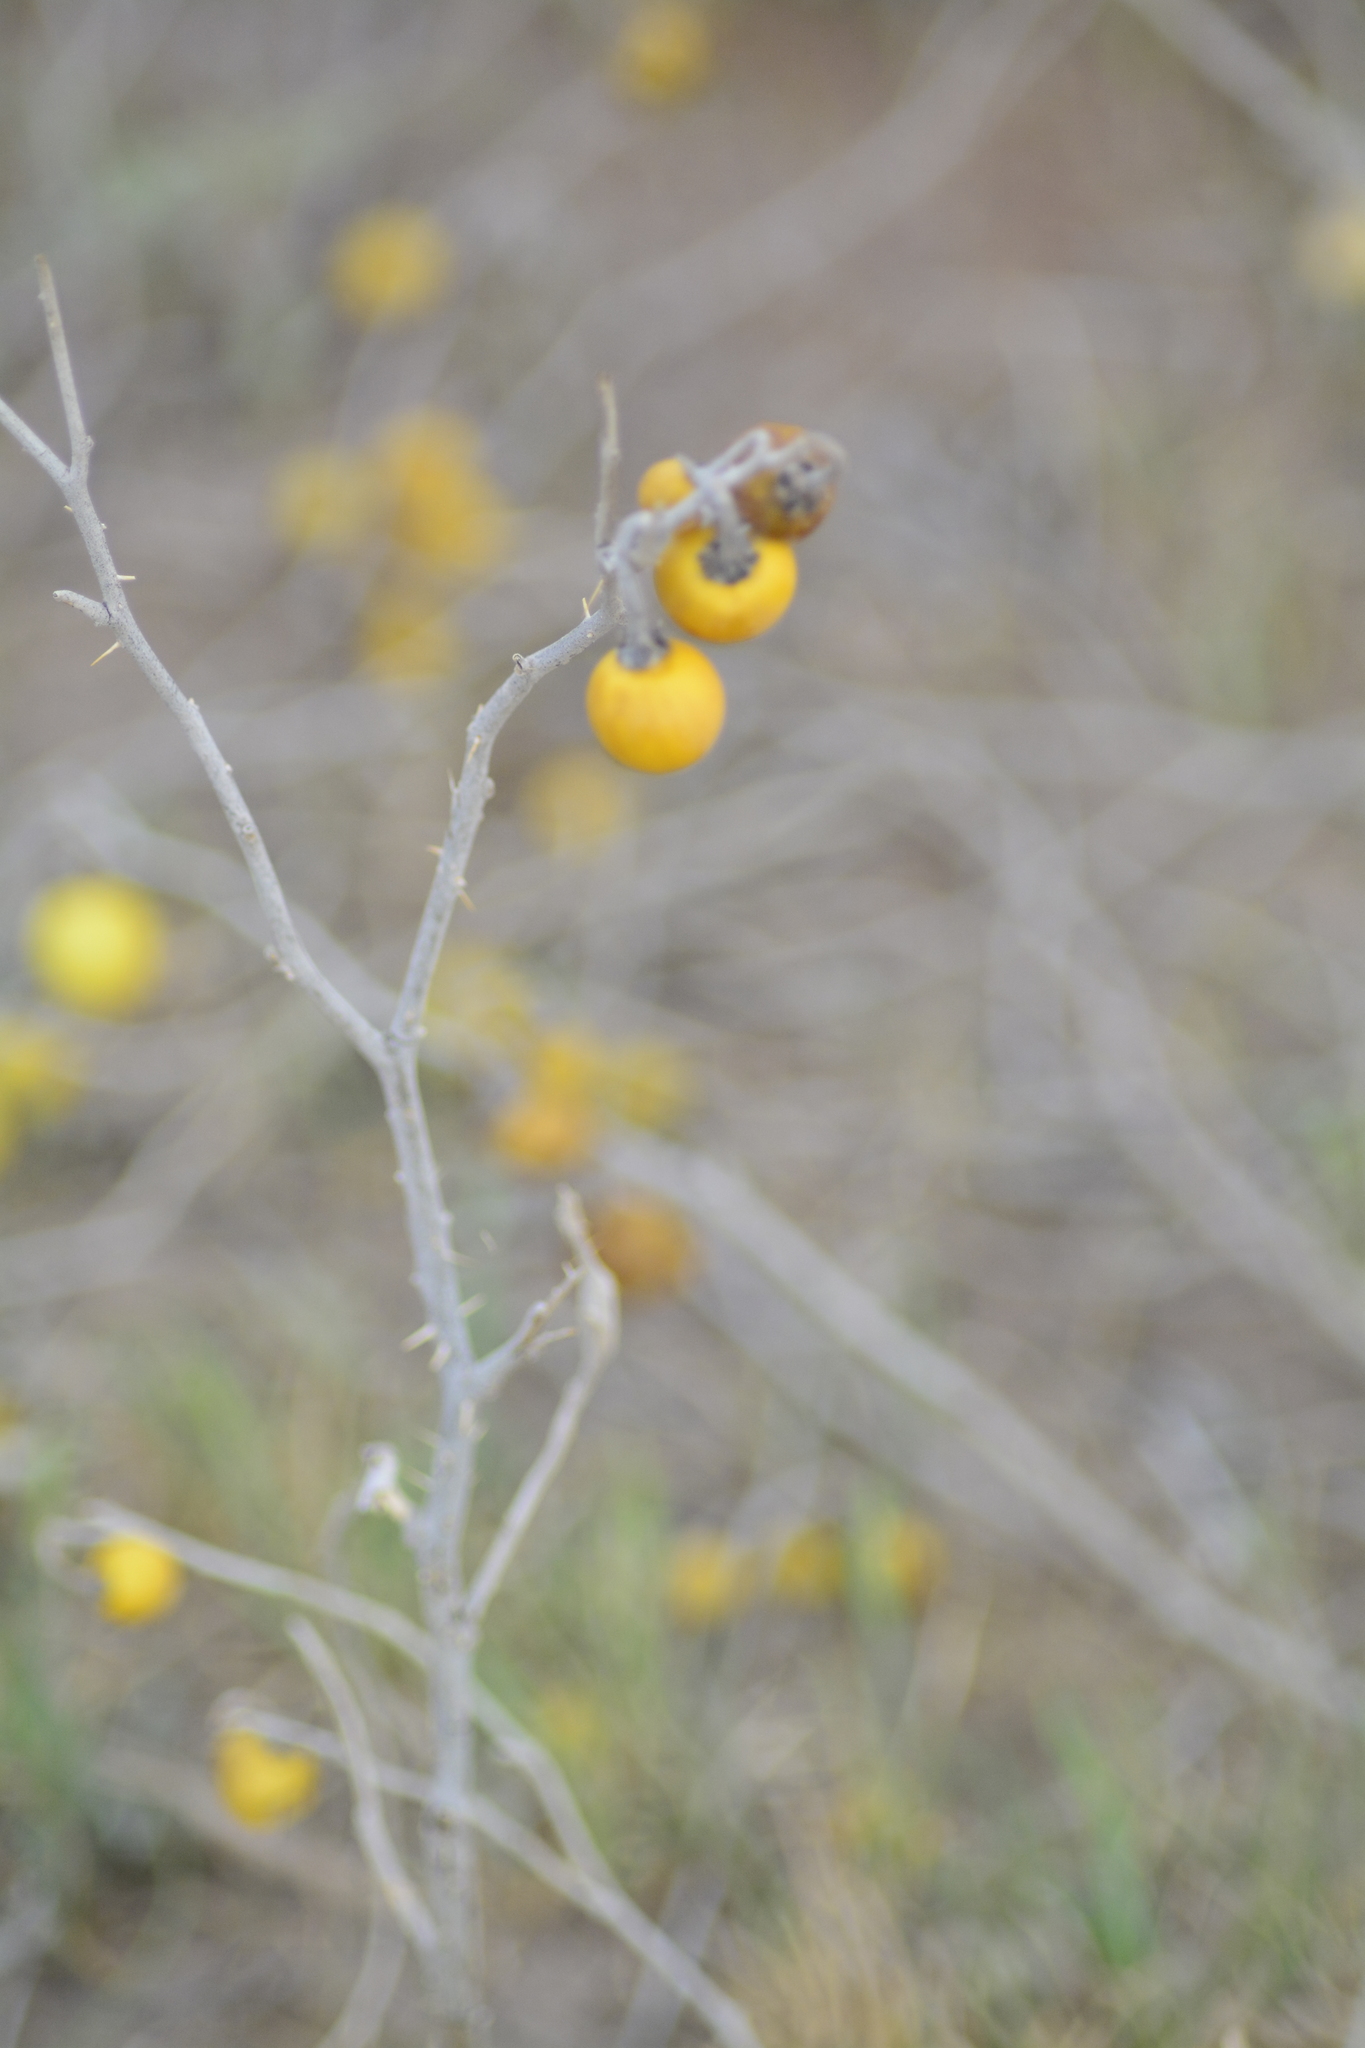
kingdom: Plantae
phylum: Tracheophyta
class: Magnoliopsida
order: Solanales
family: Solanaceae
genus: Solanum
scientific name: Solanum elaeagnifolium
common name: Silverleaf nightshade
